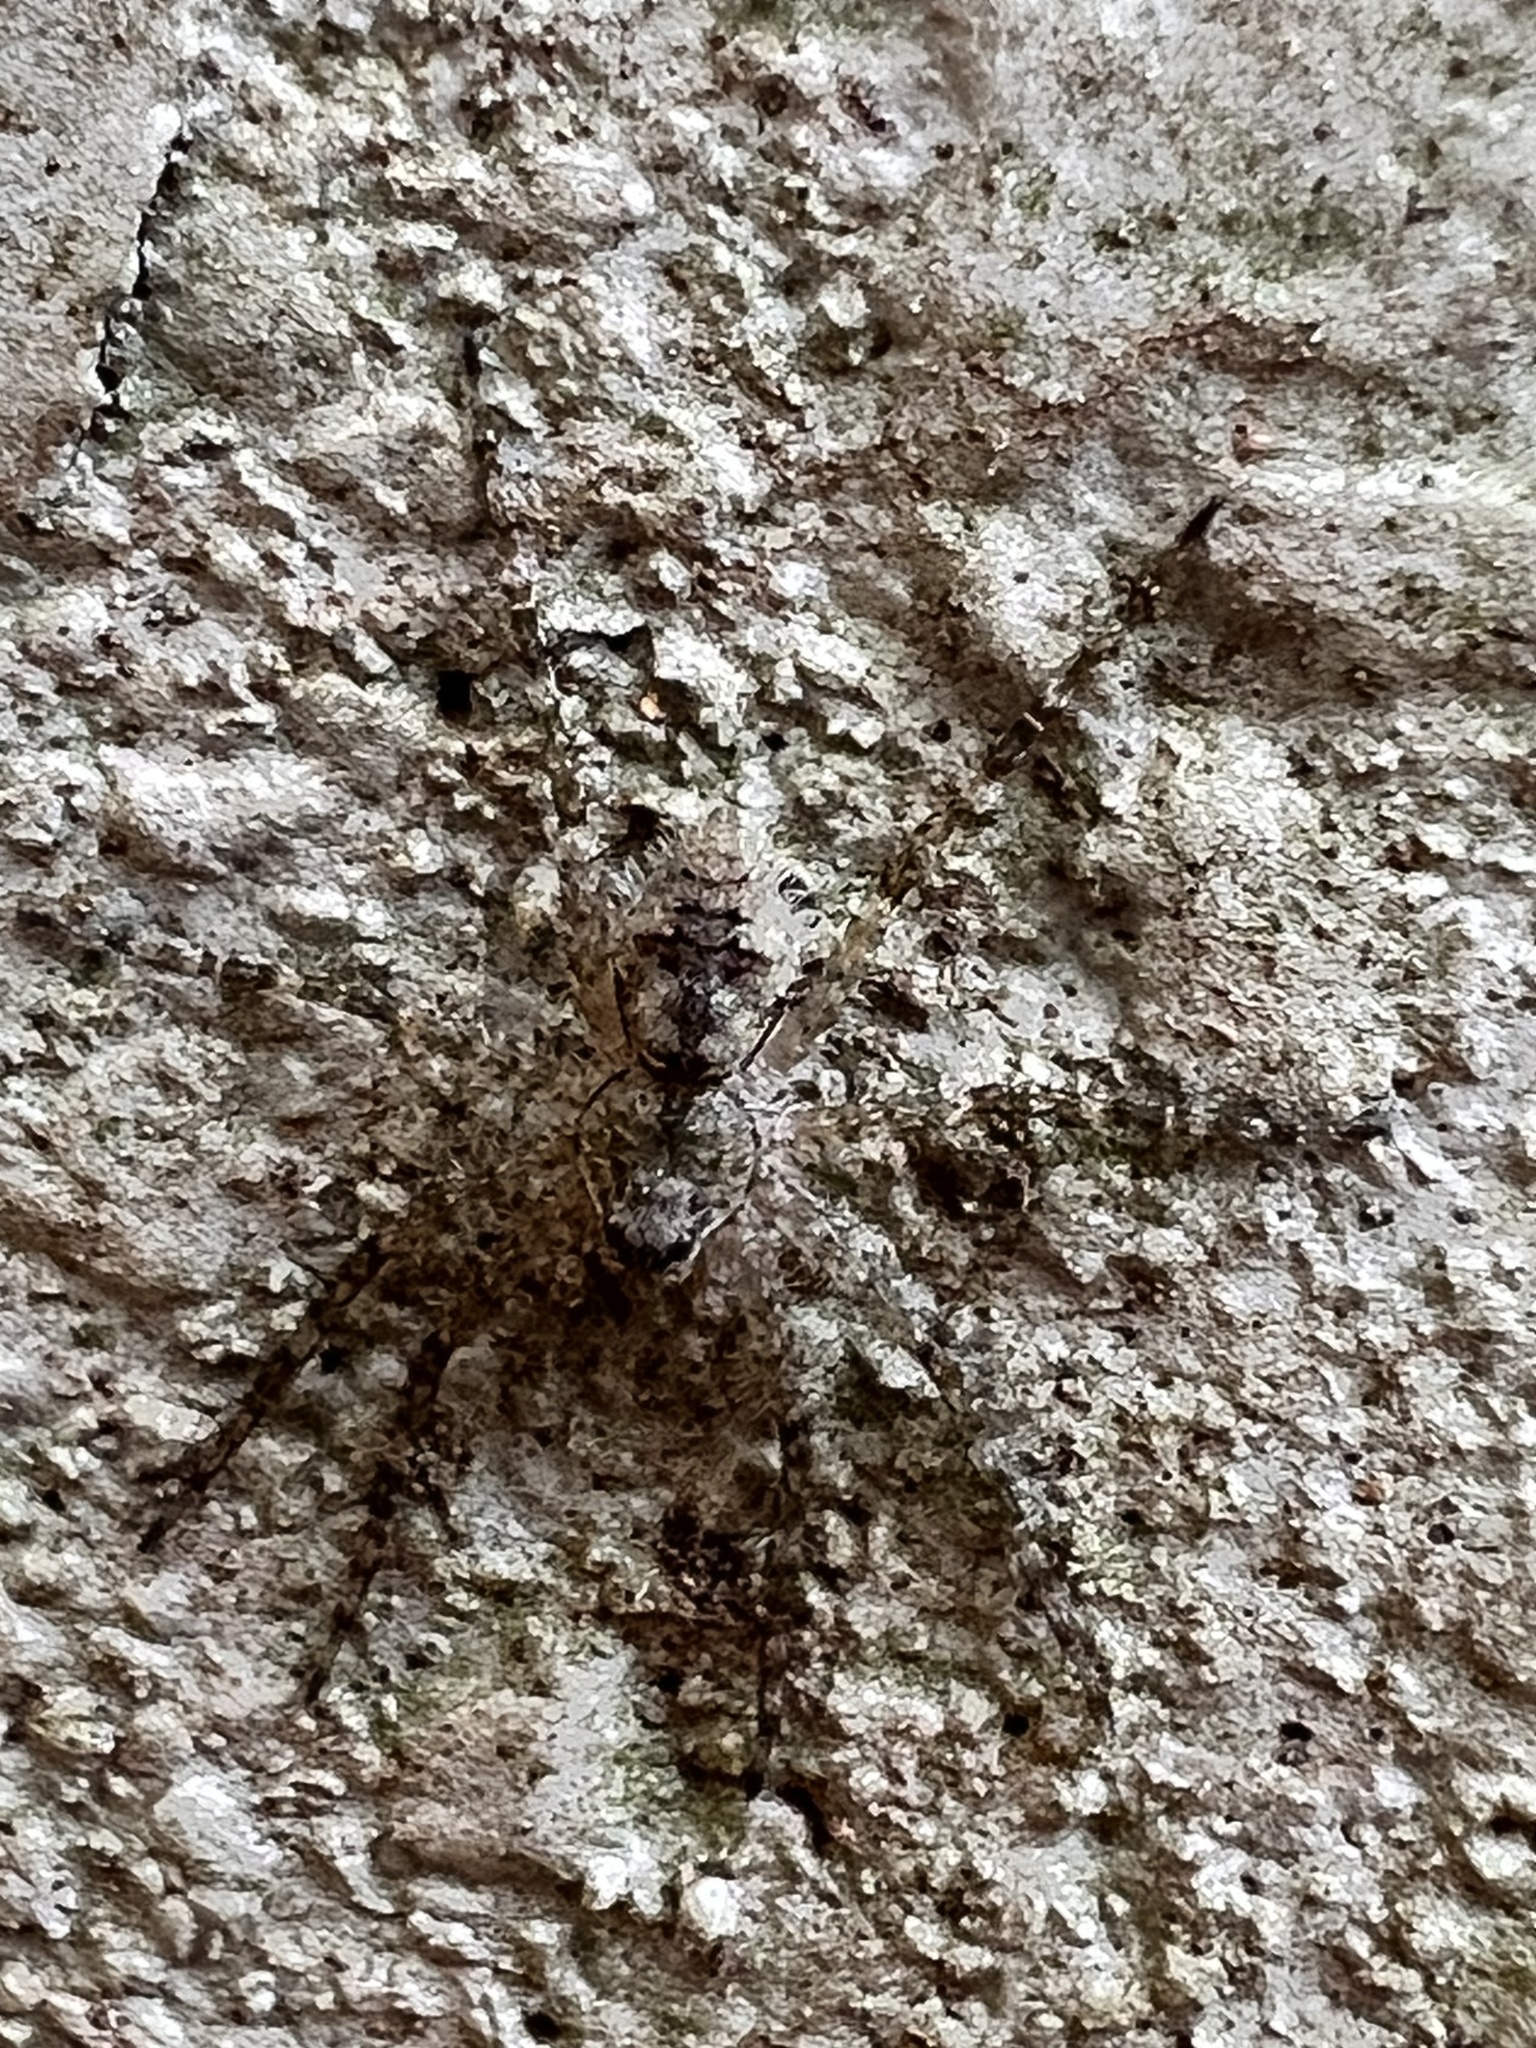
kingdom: Animalia
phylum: Arthropoda
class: Arachnida
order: Araneae
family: Pisauridae
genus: Dolomedes
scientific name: Dolomedes albineus
